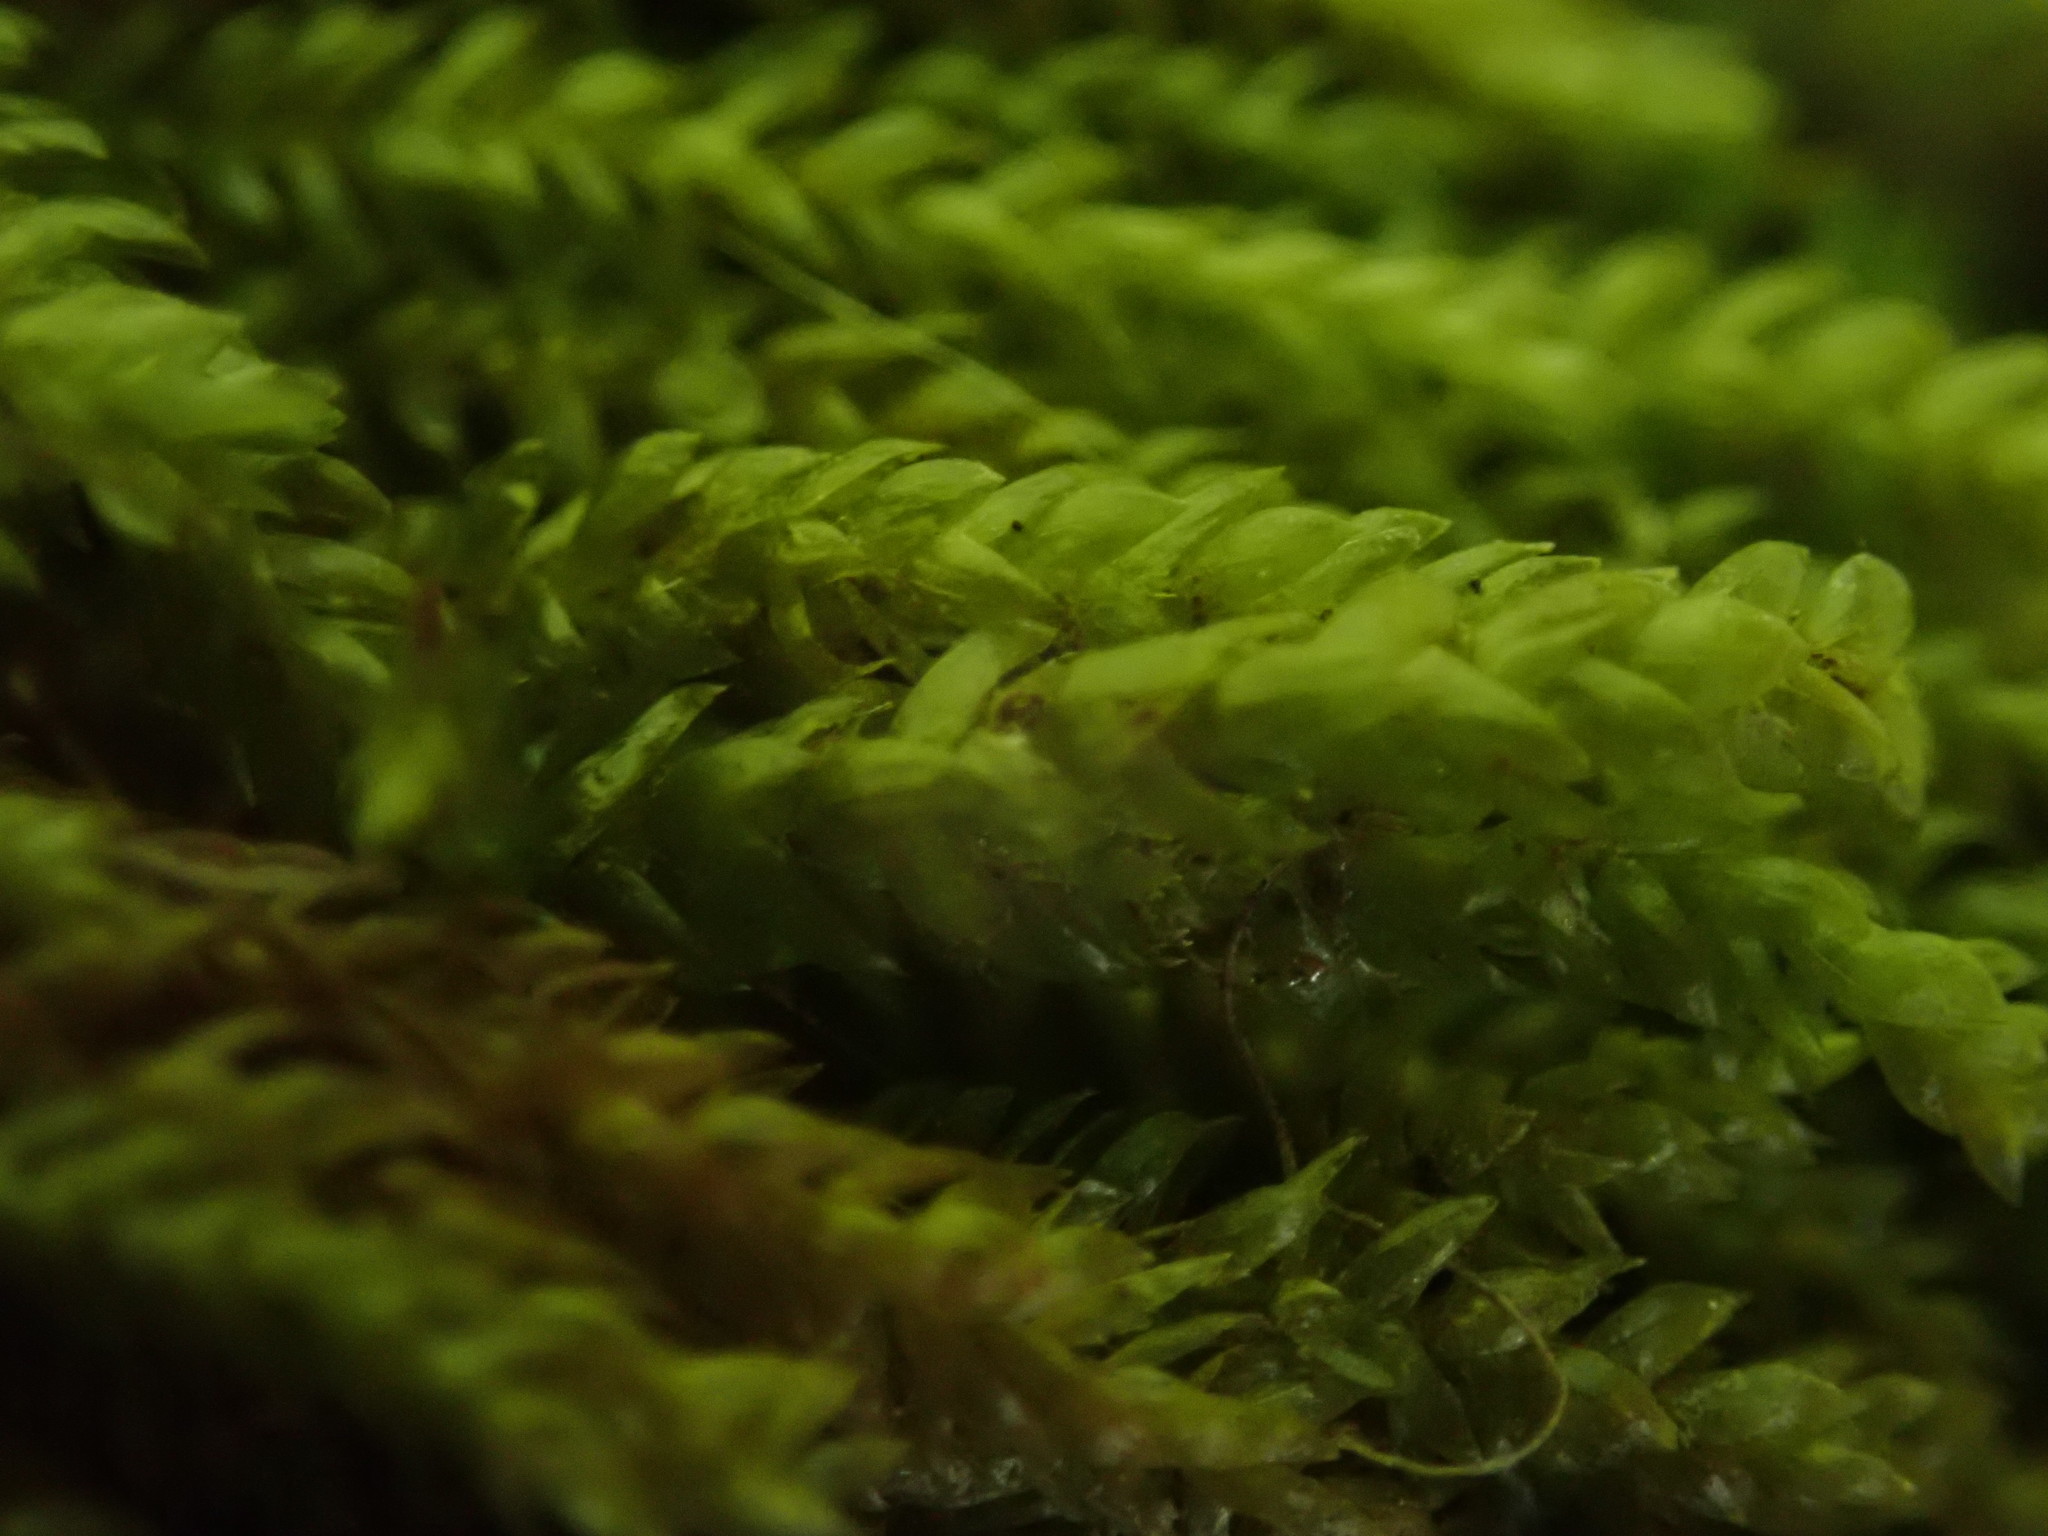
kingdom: Plantae
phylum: Bryophyta
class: Bryopsida
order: Hypnales
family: Brachytheciaceae
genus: Scleropodium
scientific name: Scleropodium obtusifolium
